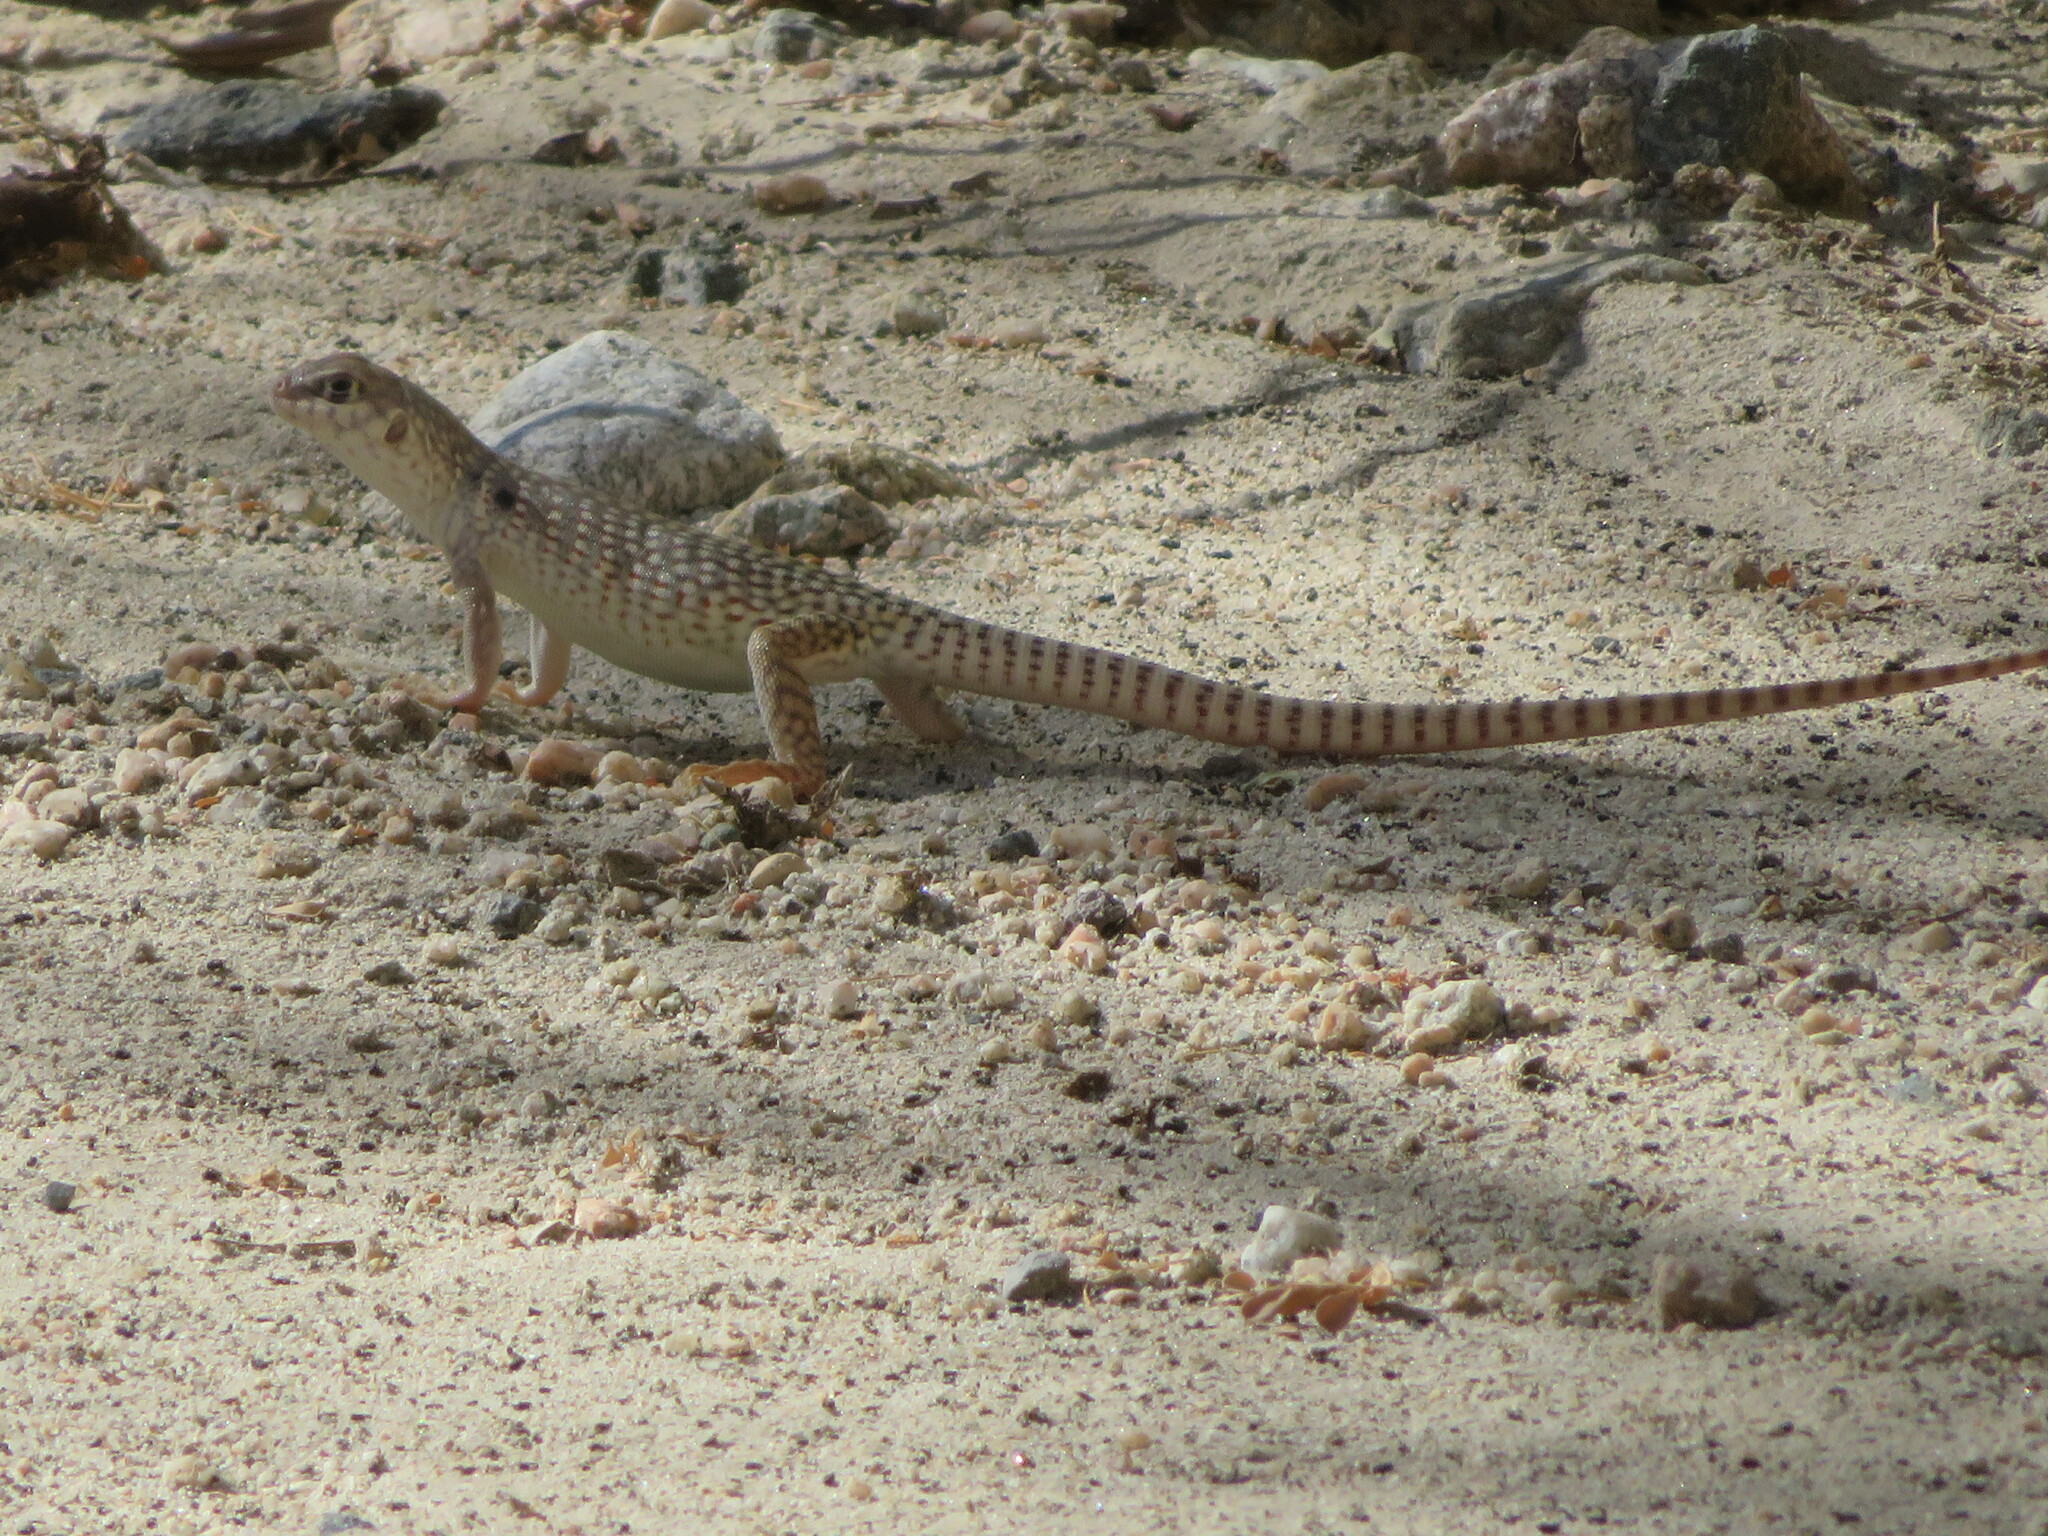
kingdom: Animalia
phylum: Chordata
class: Squamata
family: Iguanidae
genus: Dipsosaurus
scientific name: Dipsosaurus dorsalis
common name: Desert iguana
